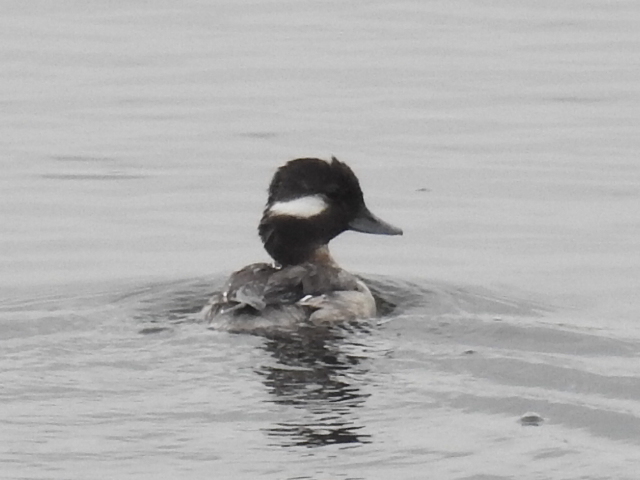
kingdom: Animalia
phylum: Chordata
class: Aves
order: Anseriformes
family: Anatidae
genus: Bucephala
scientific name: Bucephala albeola
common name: Bufflehead
